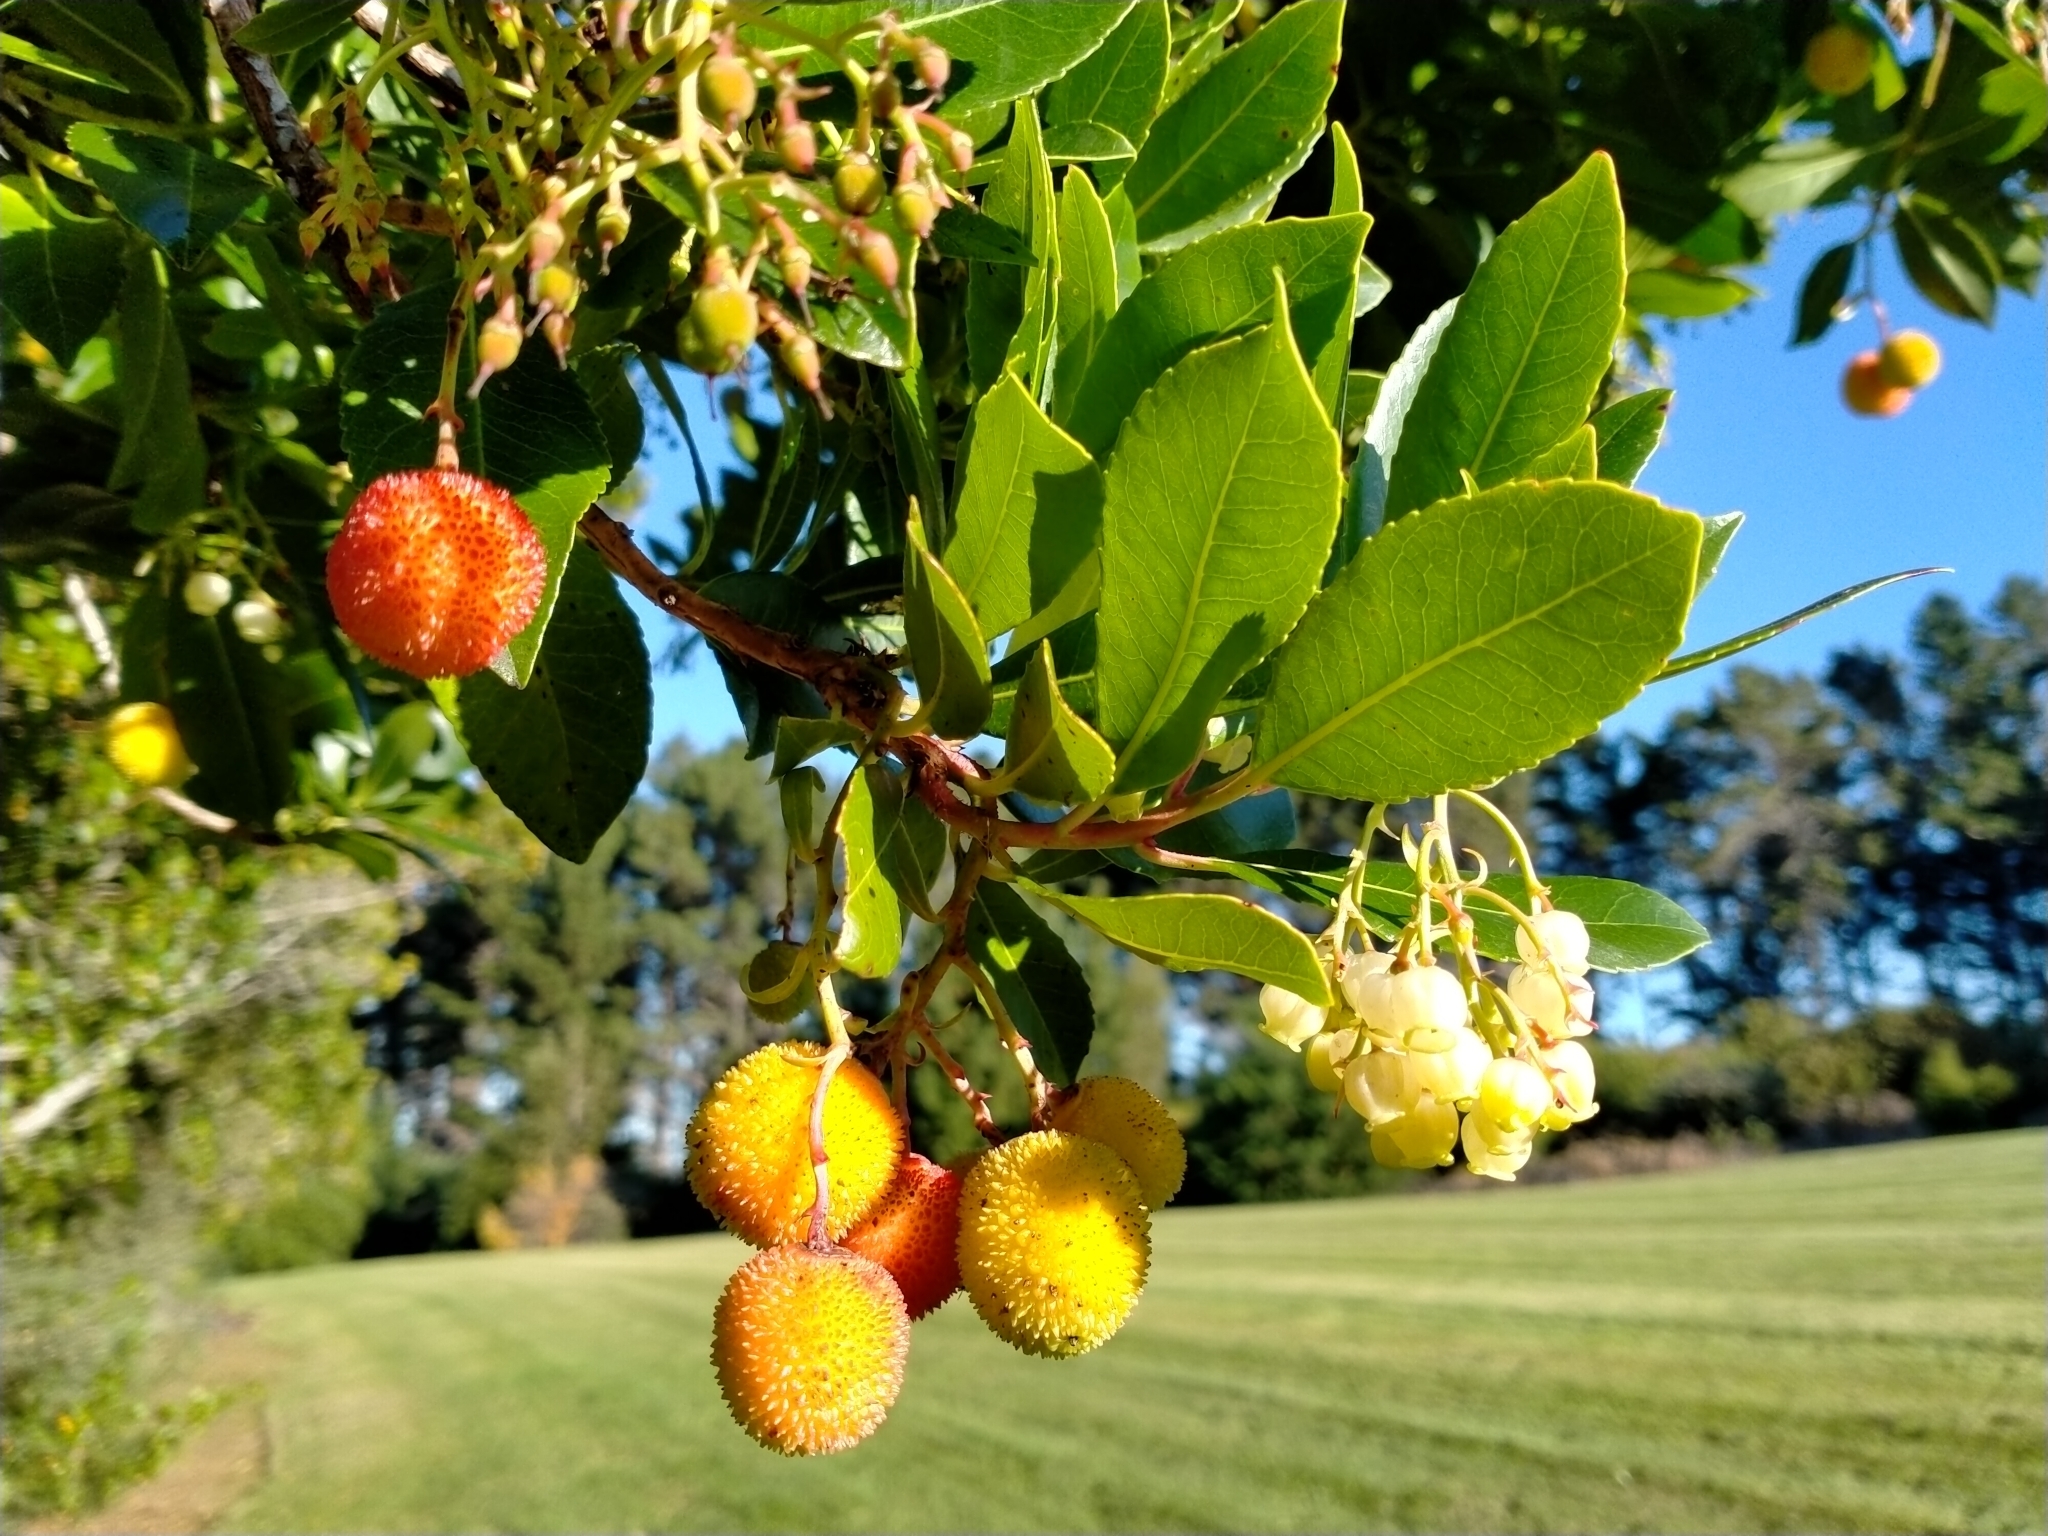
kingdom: Plantae
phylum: Tracheophyta
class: Magnoliopsida
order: Ericales
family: Ericaceae
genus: Arbutus
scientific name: Arbutus unedo
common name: Strawberry-tree
